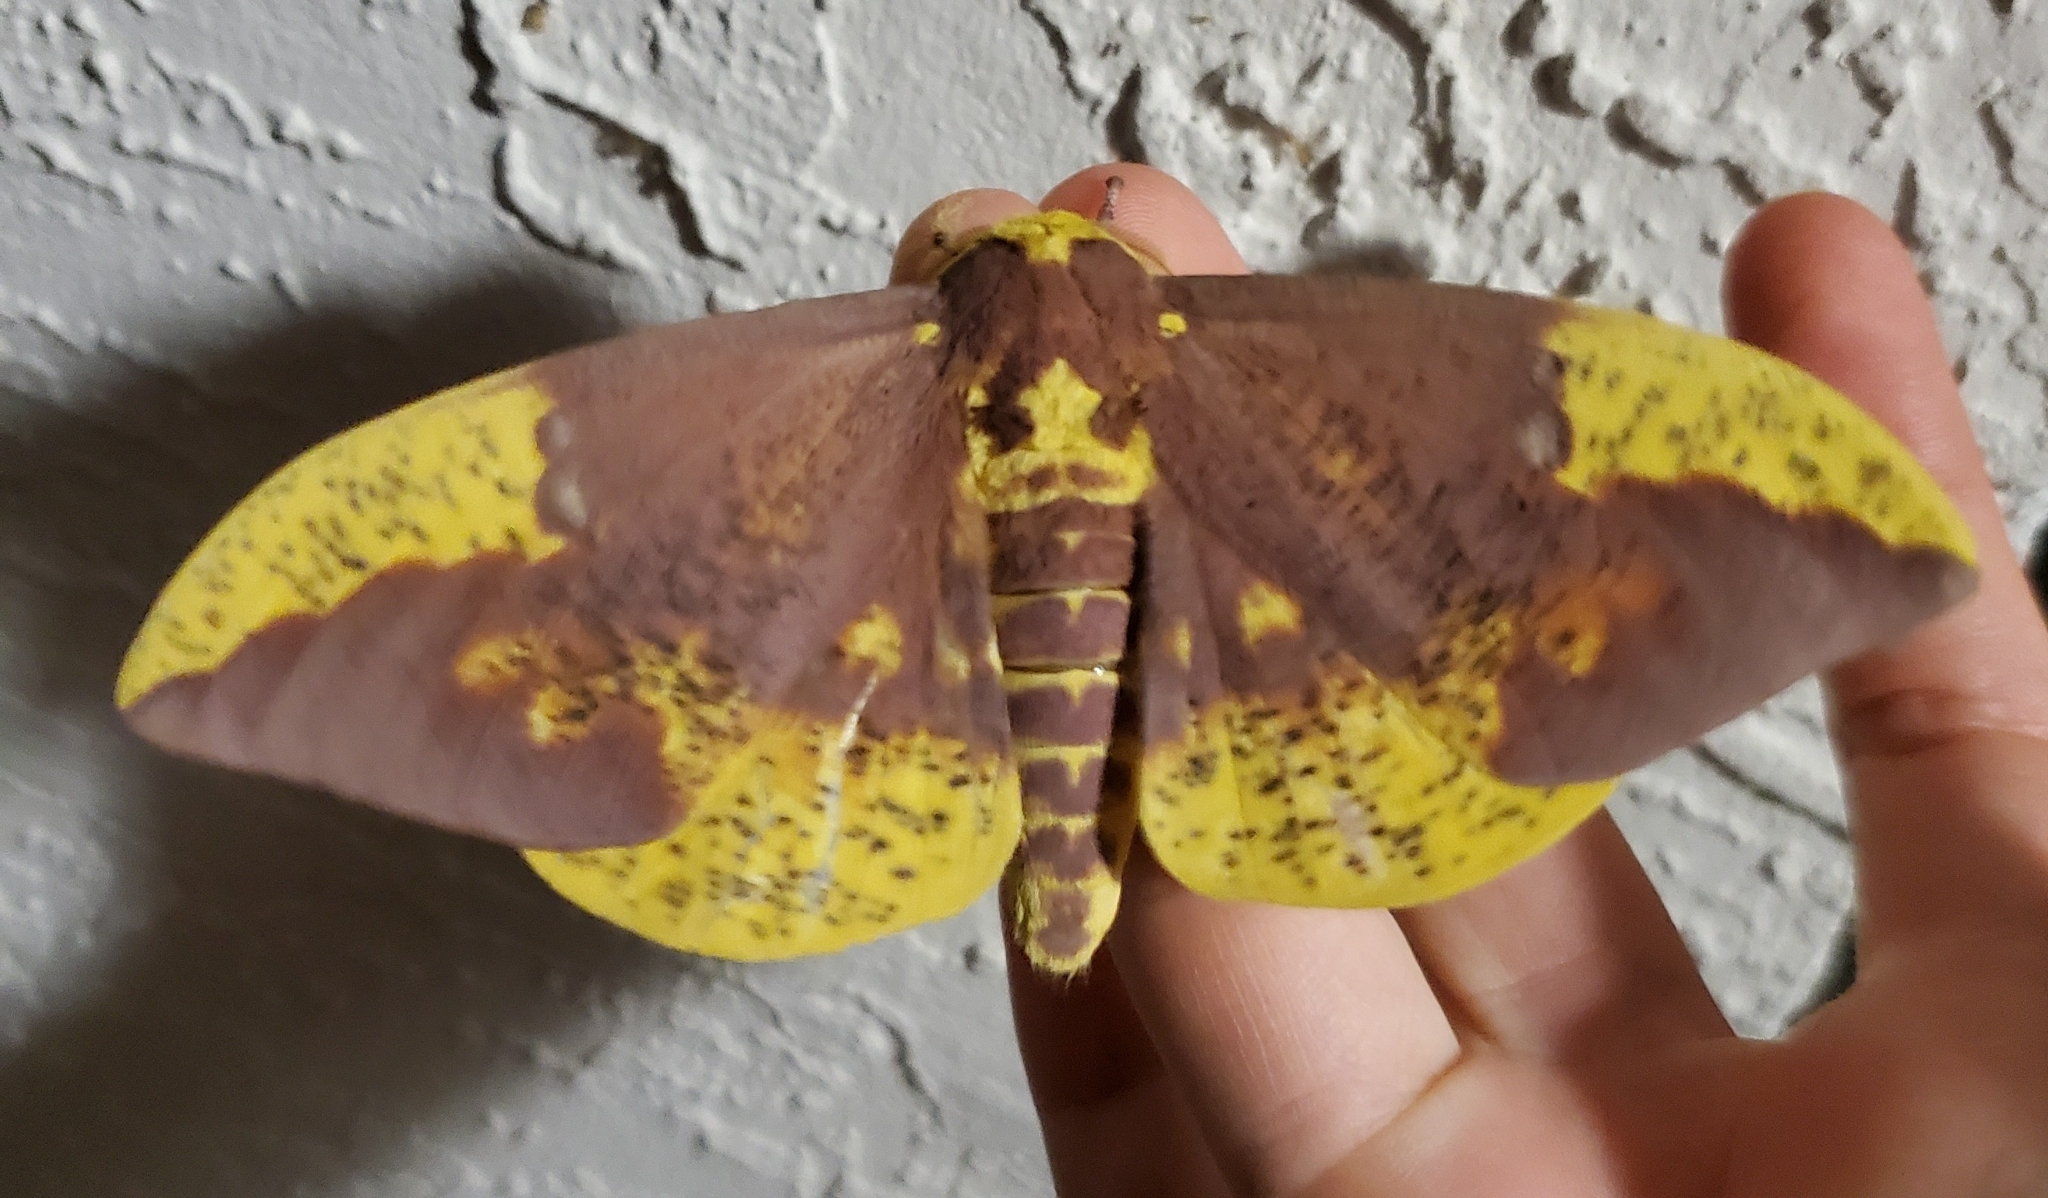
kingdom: Animalia
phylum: Arthropoda
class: Insecta
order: Lepidoptera
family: Saturniidae
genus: Eacles
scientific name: Eacles imperialis
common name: Imperial moth
